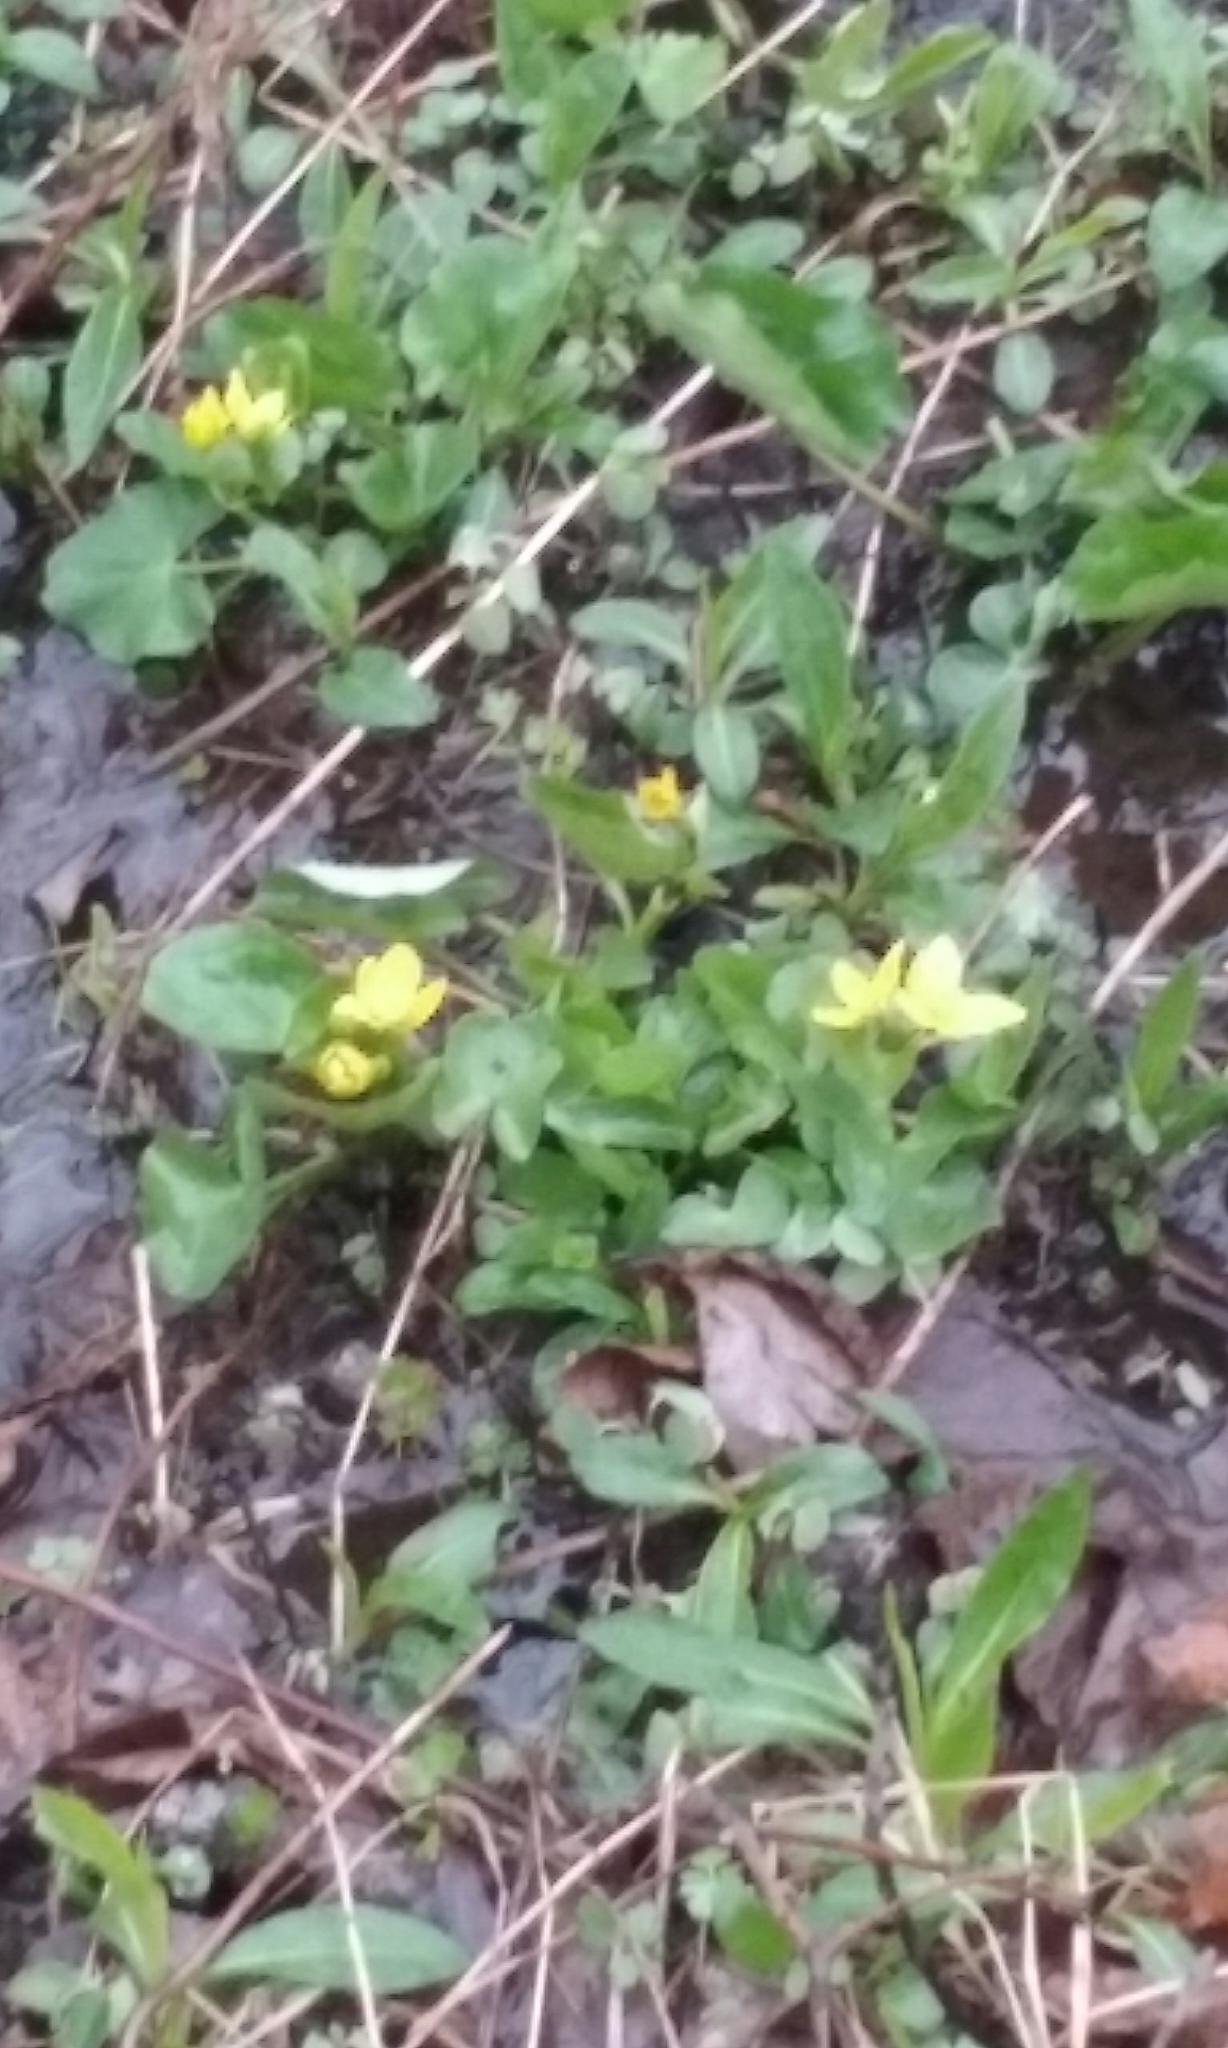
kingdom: Plantae
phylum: Tracheophyta
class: Magnoliopsida
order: Ranunculales
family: Ranunculaceae
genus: Caltha
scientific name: Caltha palustris
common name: Marsh marigold
